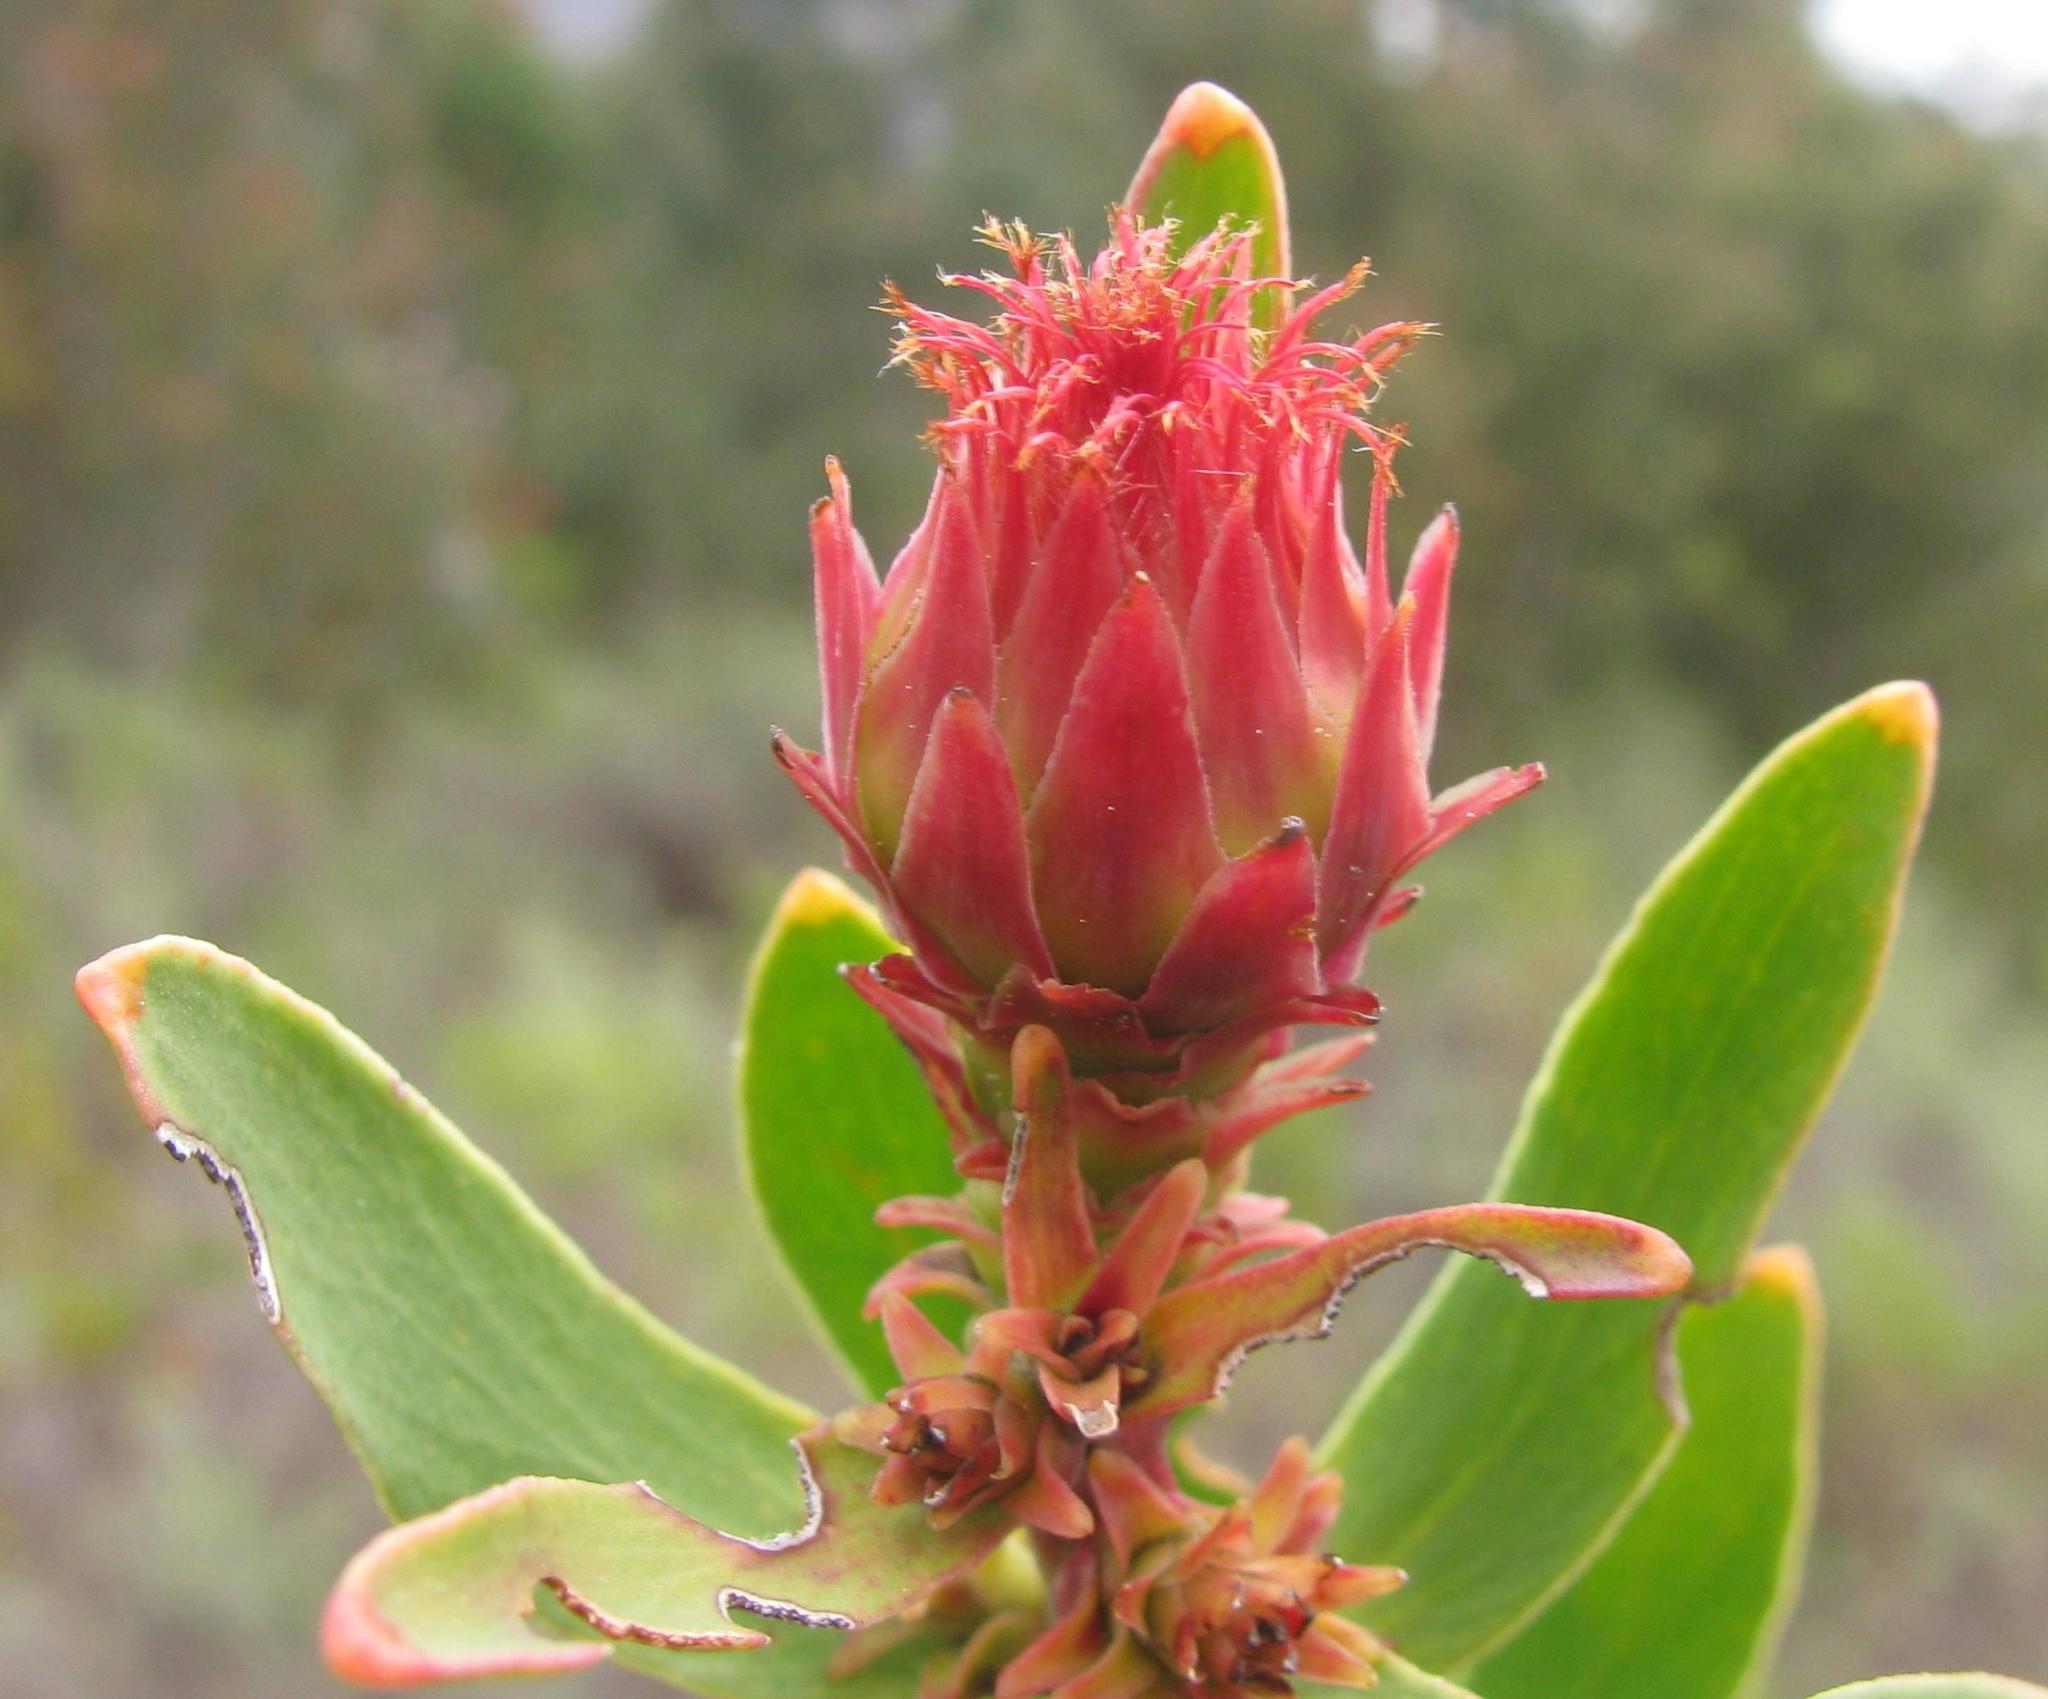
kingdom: Plantae
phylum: Tracheophyta
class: Magnoliopsida
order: Proteales
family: Proteaceae
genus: Leucospermum
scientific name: Leucospermum tottum
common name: Ribbon pincushion
